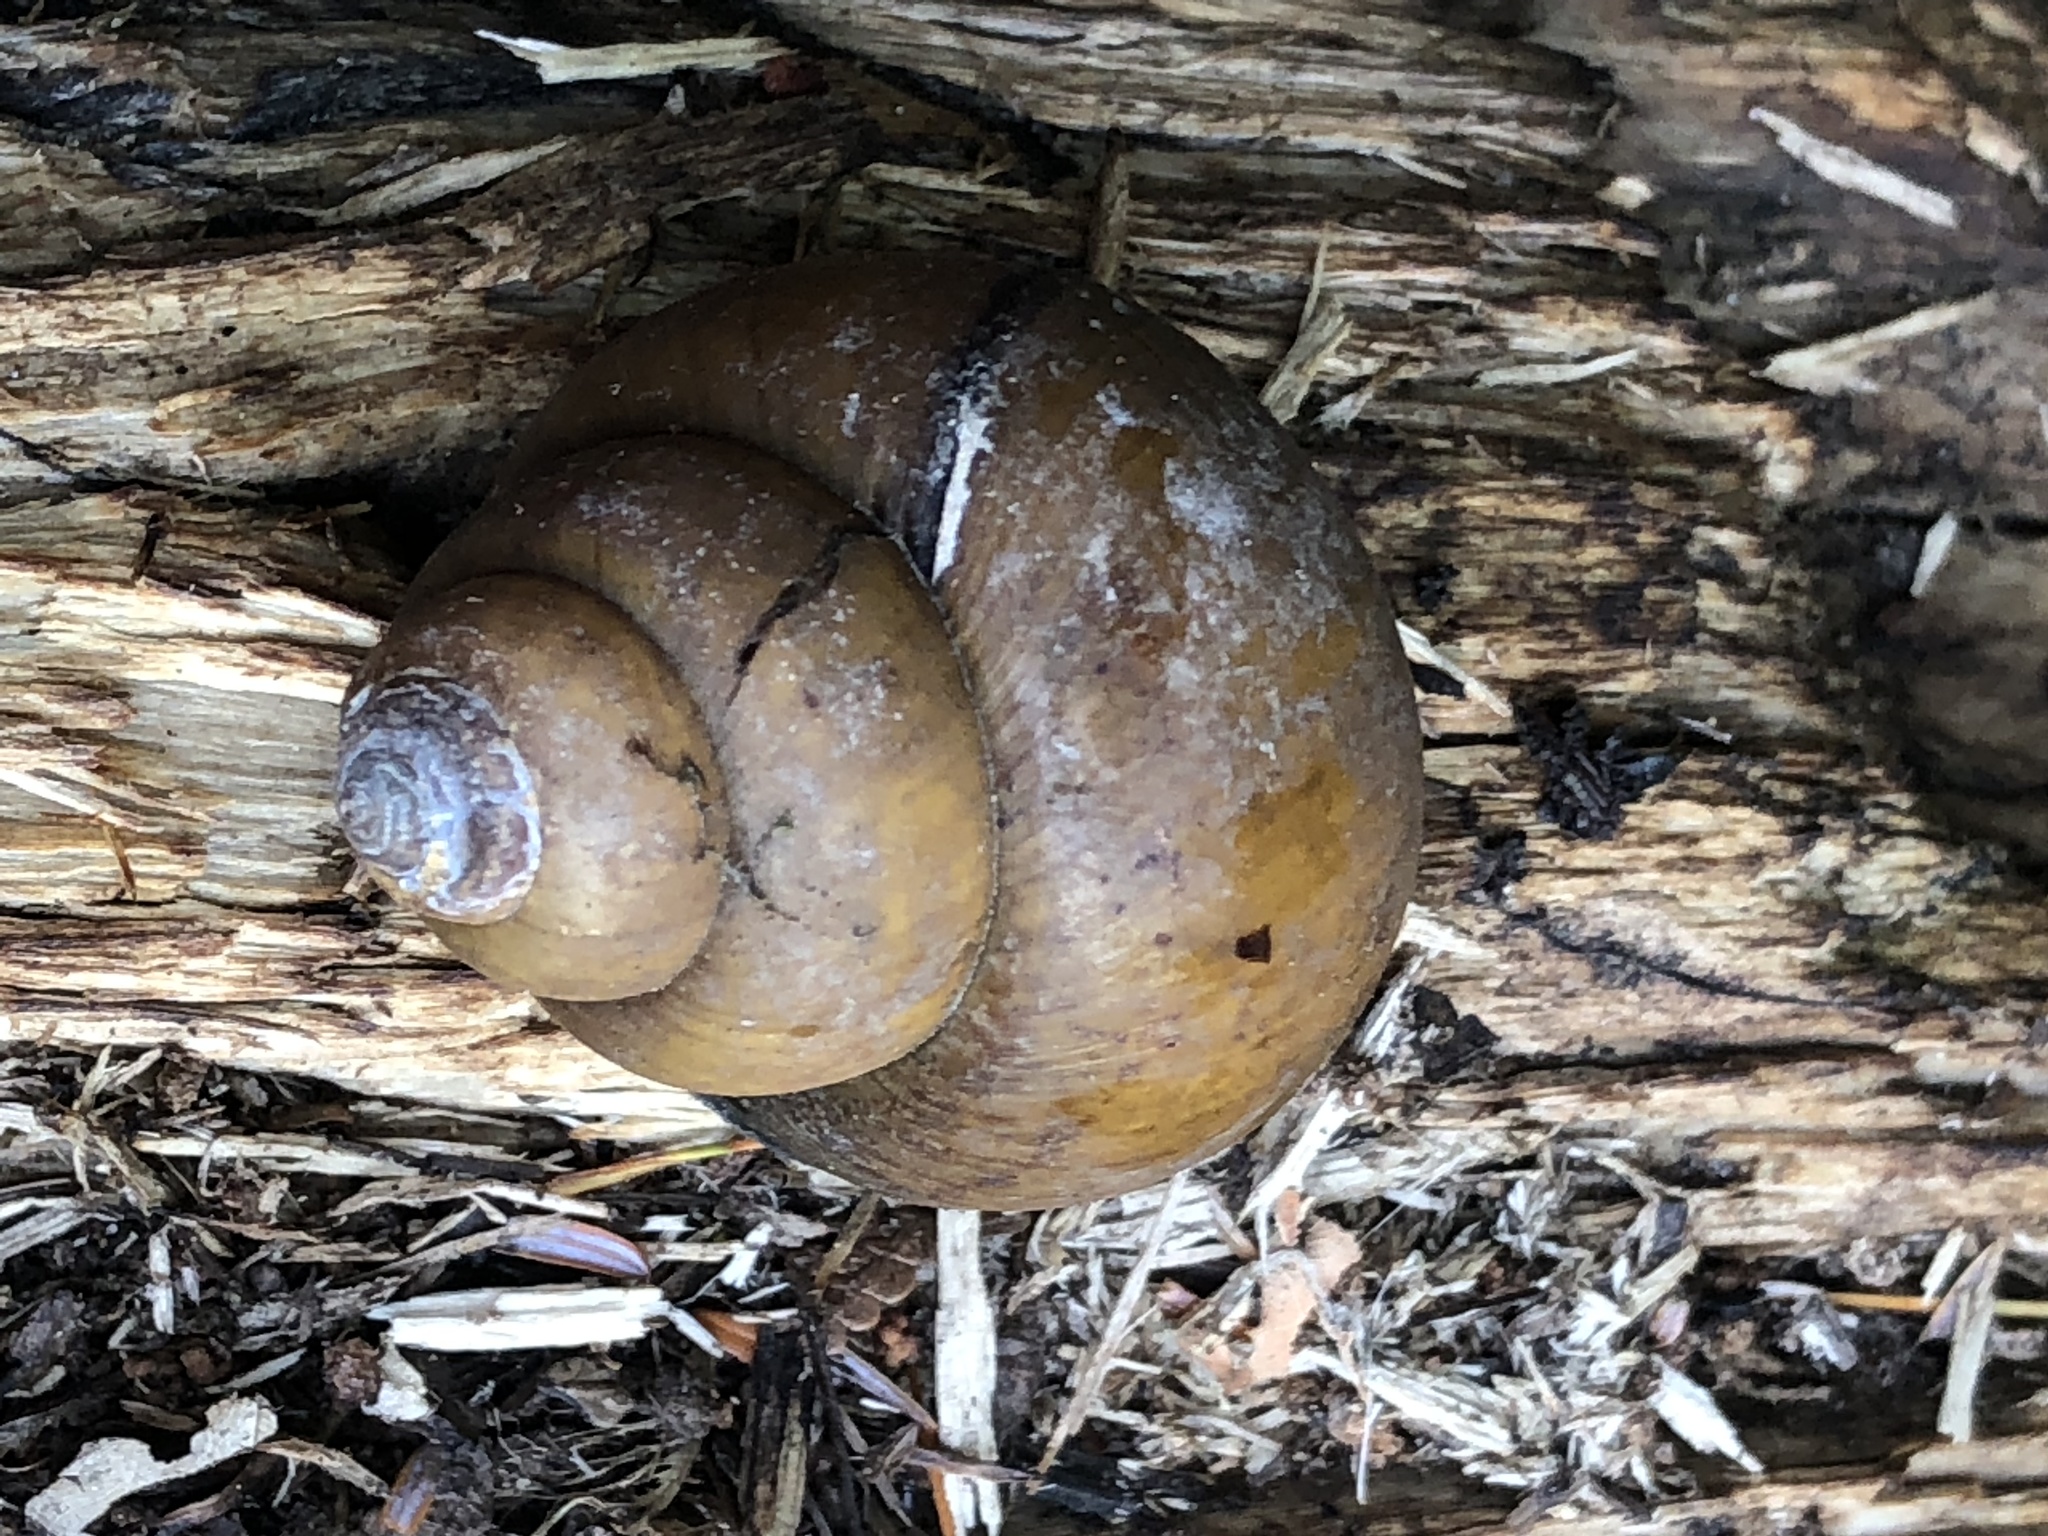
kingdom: Animalia
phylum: Mollusca
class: Gastropoda
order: Architaenioglossa
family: Viviparidae
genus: Cipangopaludina
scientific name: Cipangopaludina chinensis
